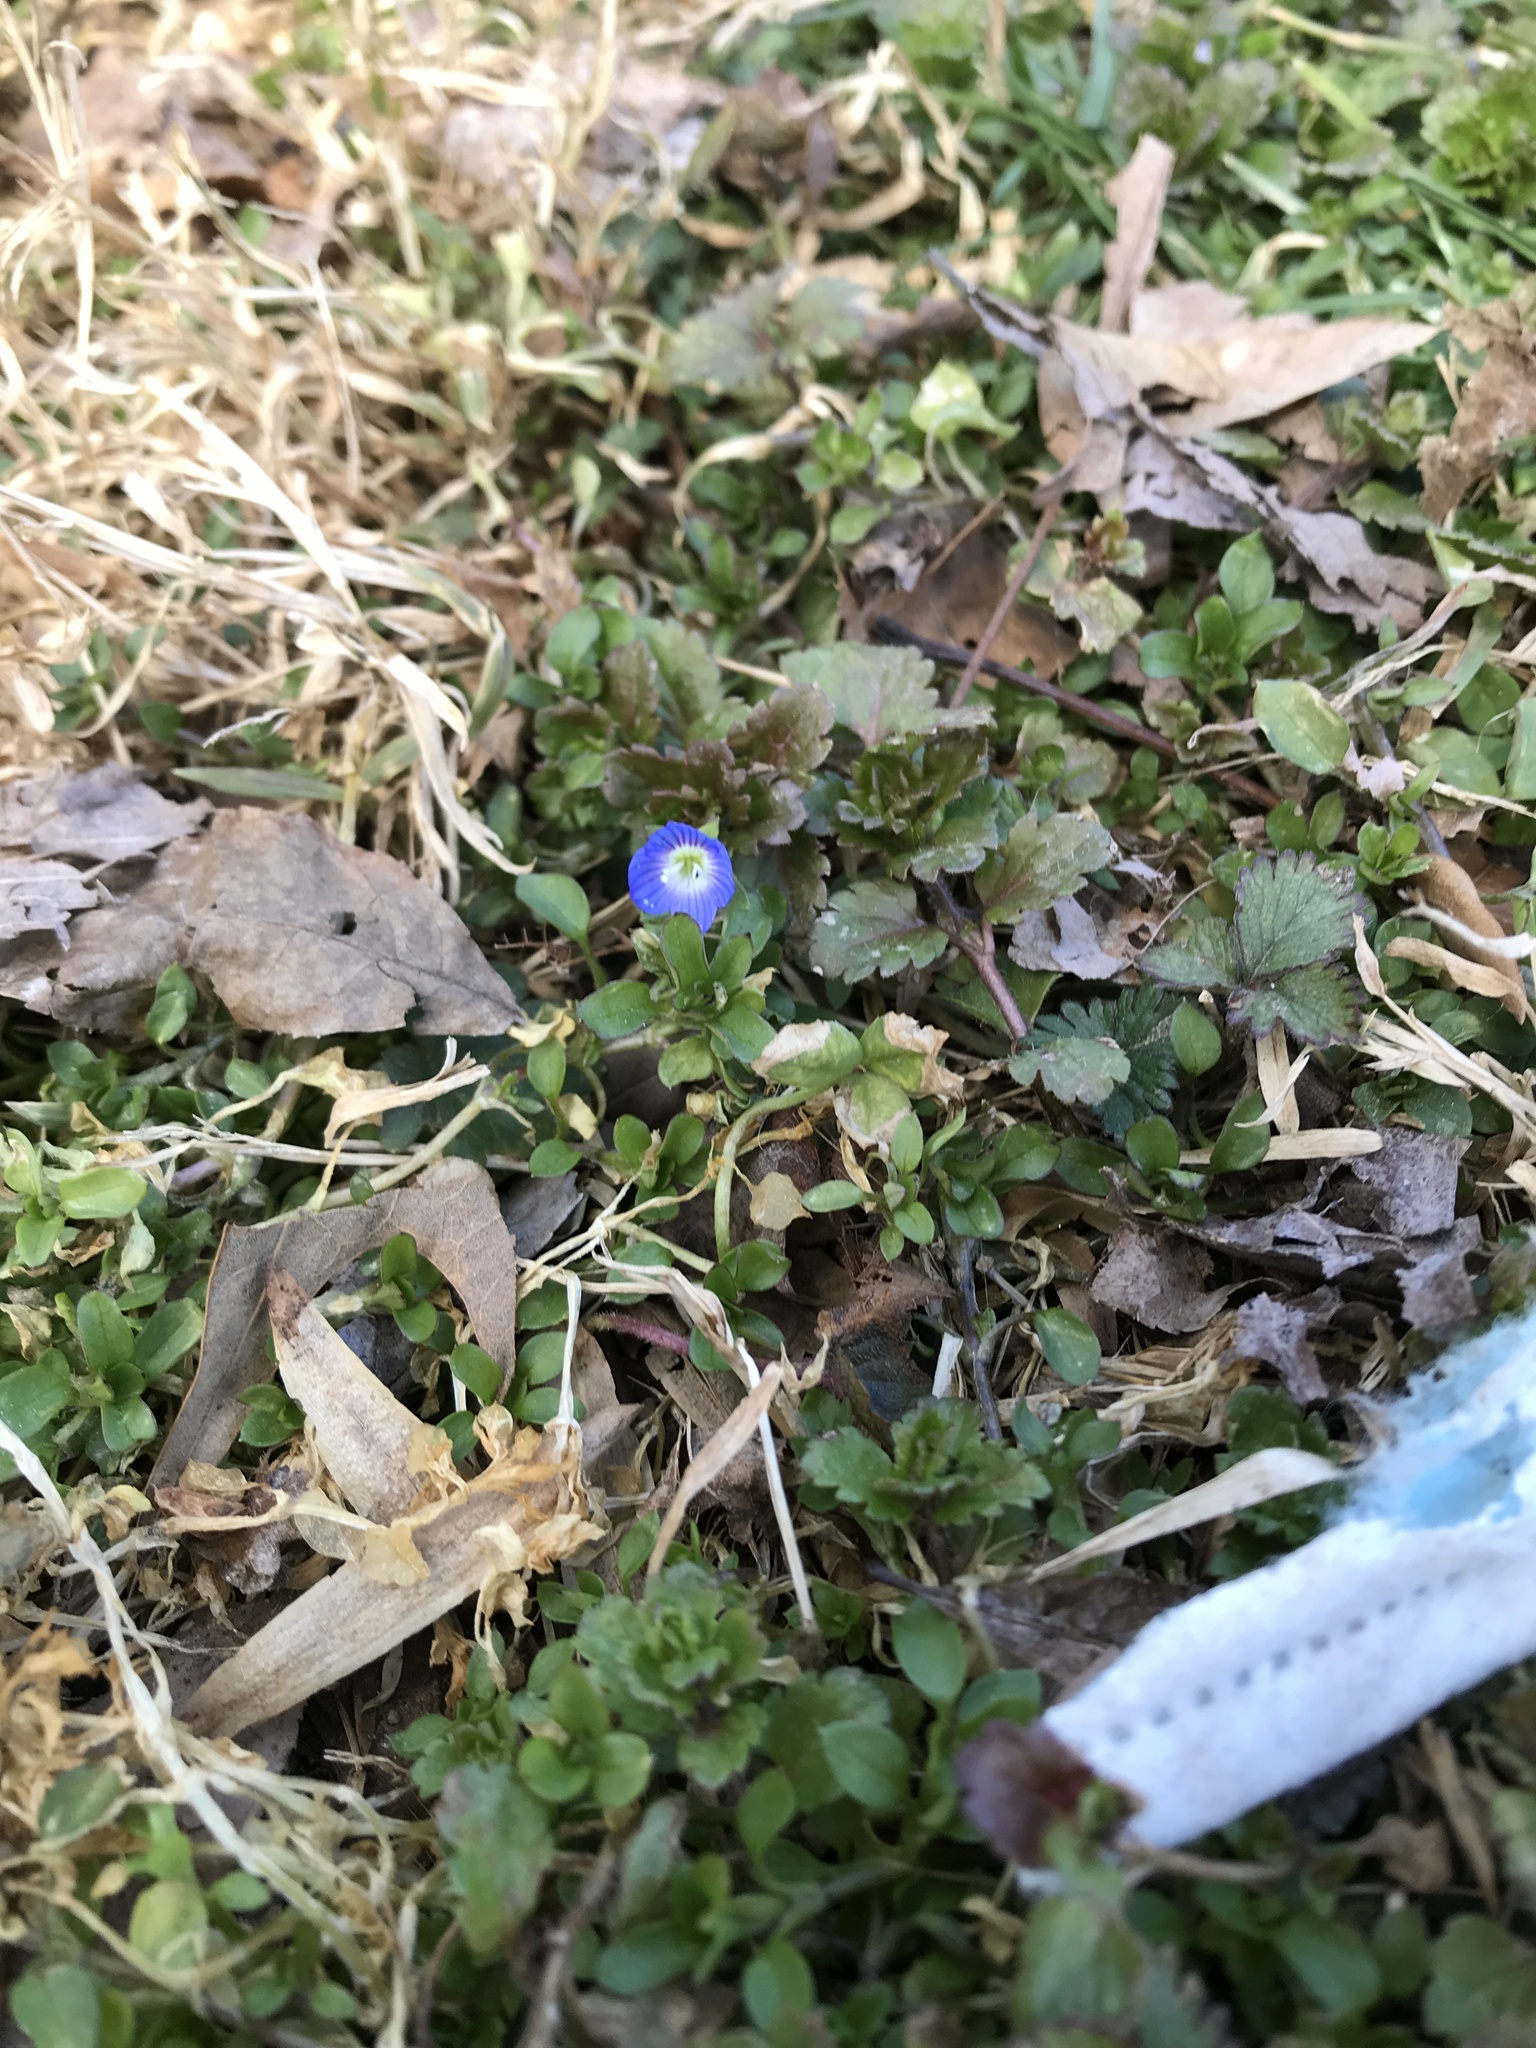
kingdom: Plantae
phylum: Tracheophyta
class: Magnoliopsida
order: Lamiales
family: Plantaginaceae
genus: Veronica
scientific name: Veronica persica
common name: Common field-speedwell
